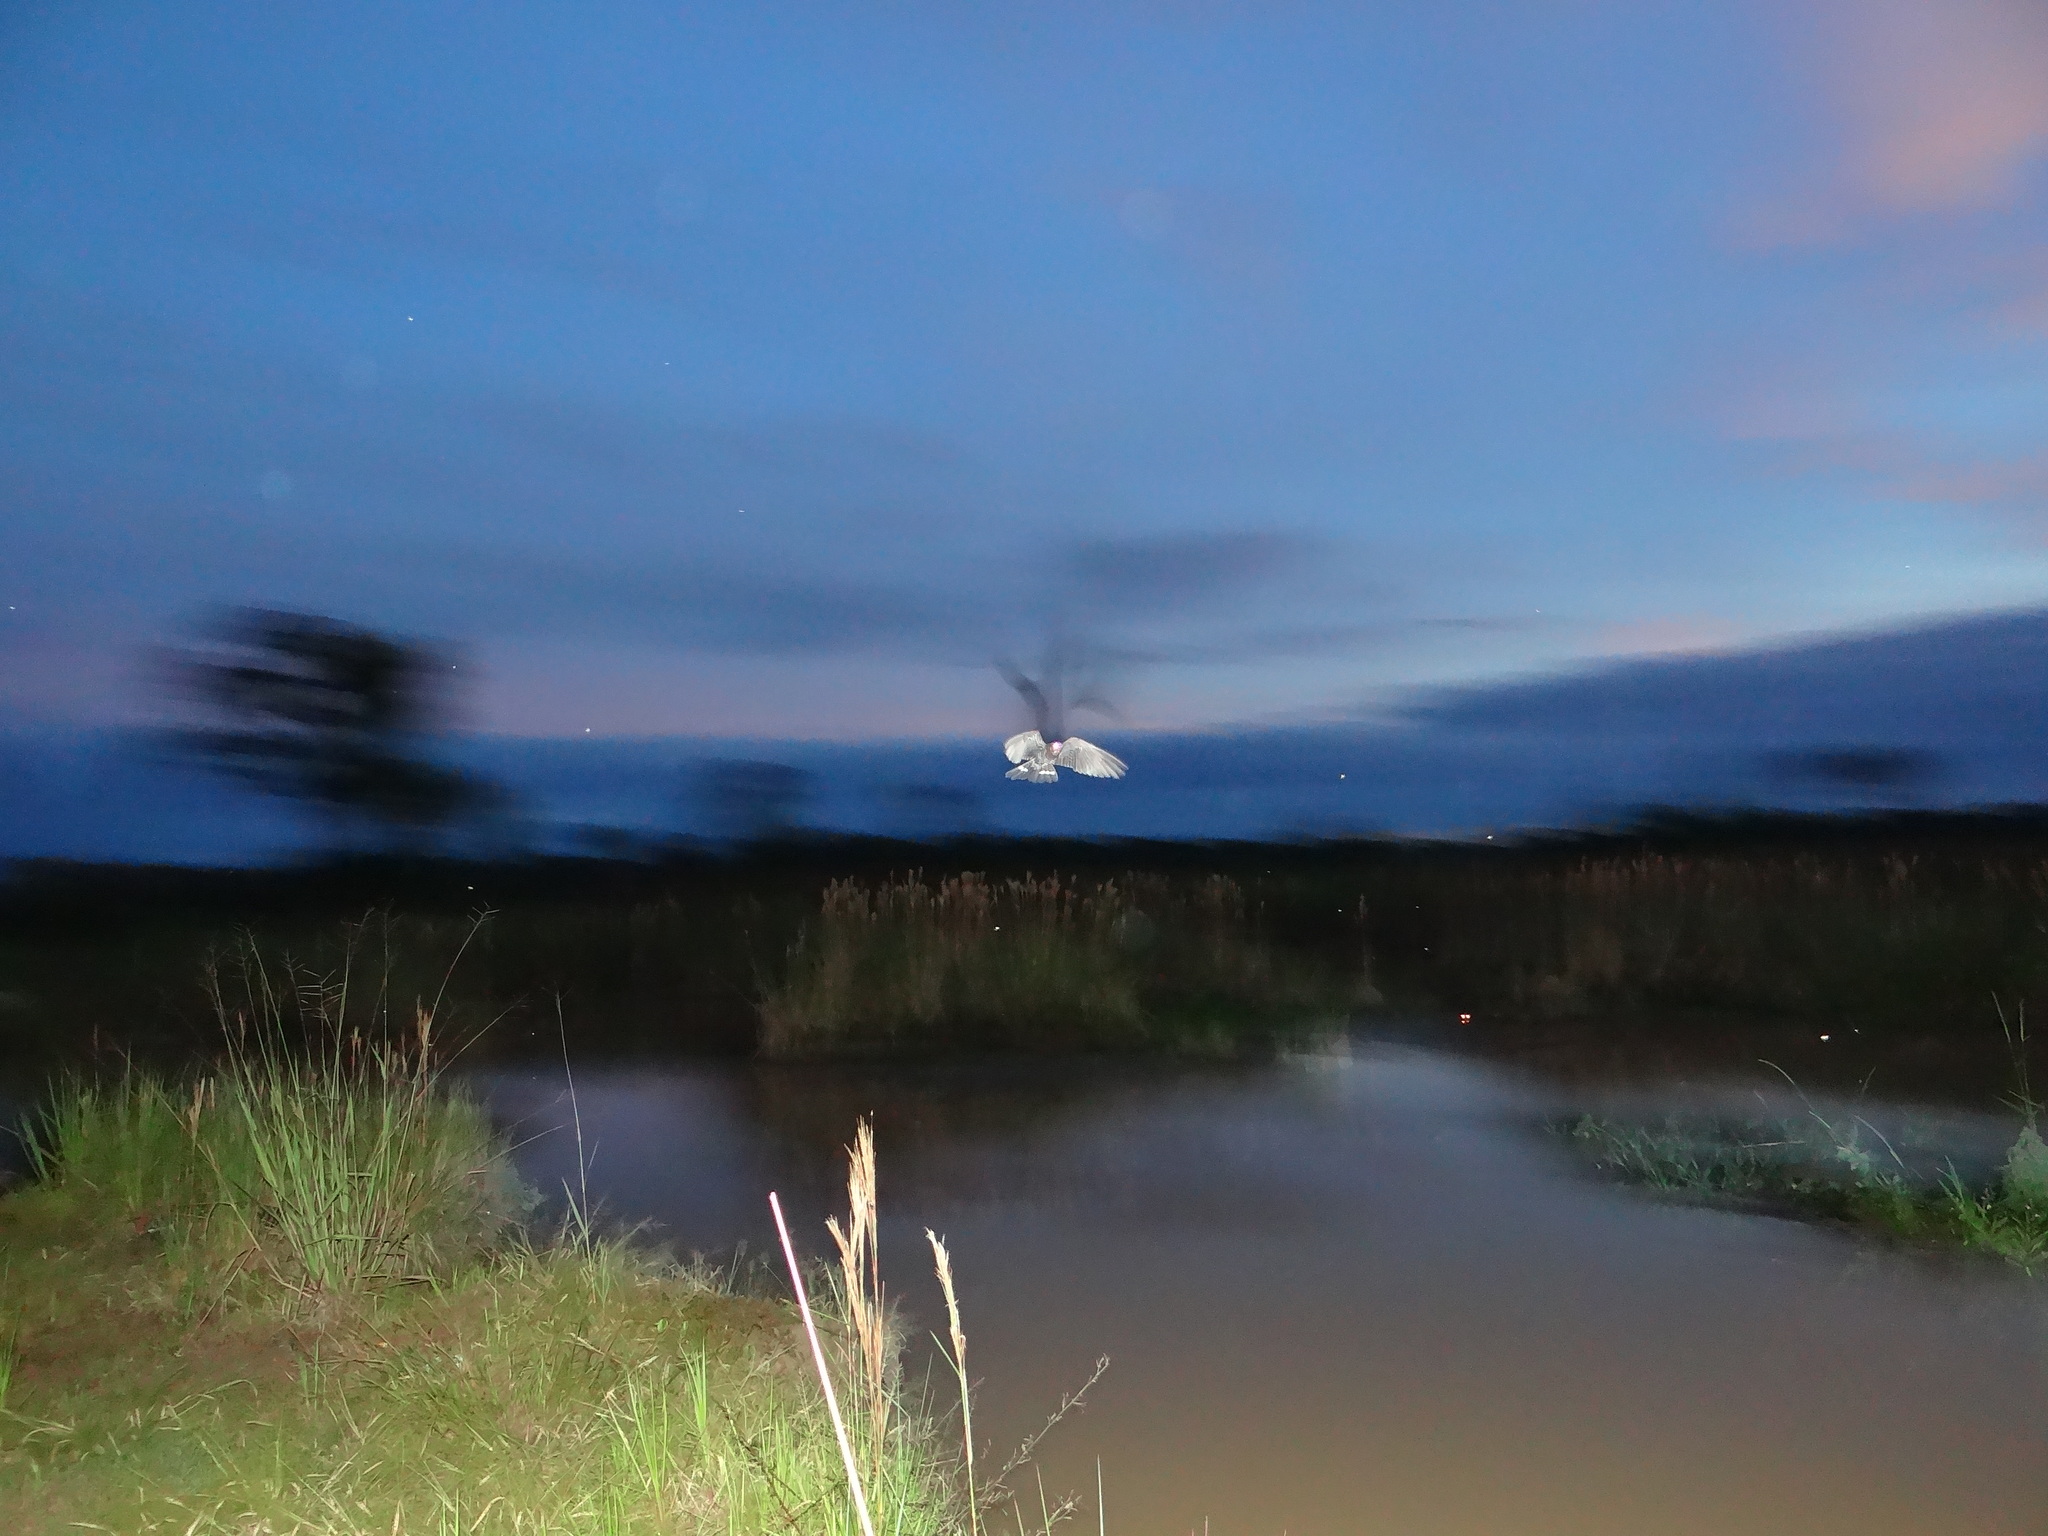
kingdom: Animalia
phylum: Chordata
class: Aves
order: Caprimulgiformes
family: Caprimulgidae
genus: Nyctiprogne
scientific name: Nyctiprogne leucopyga
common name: Band-tailed nighthawk
